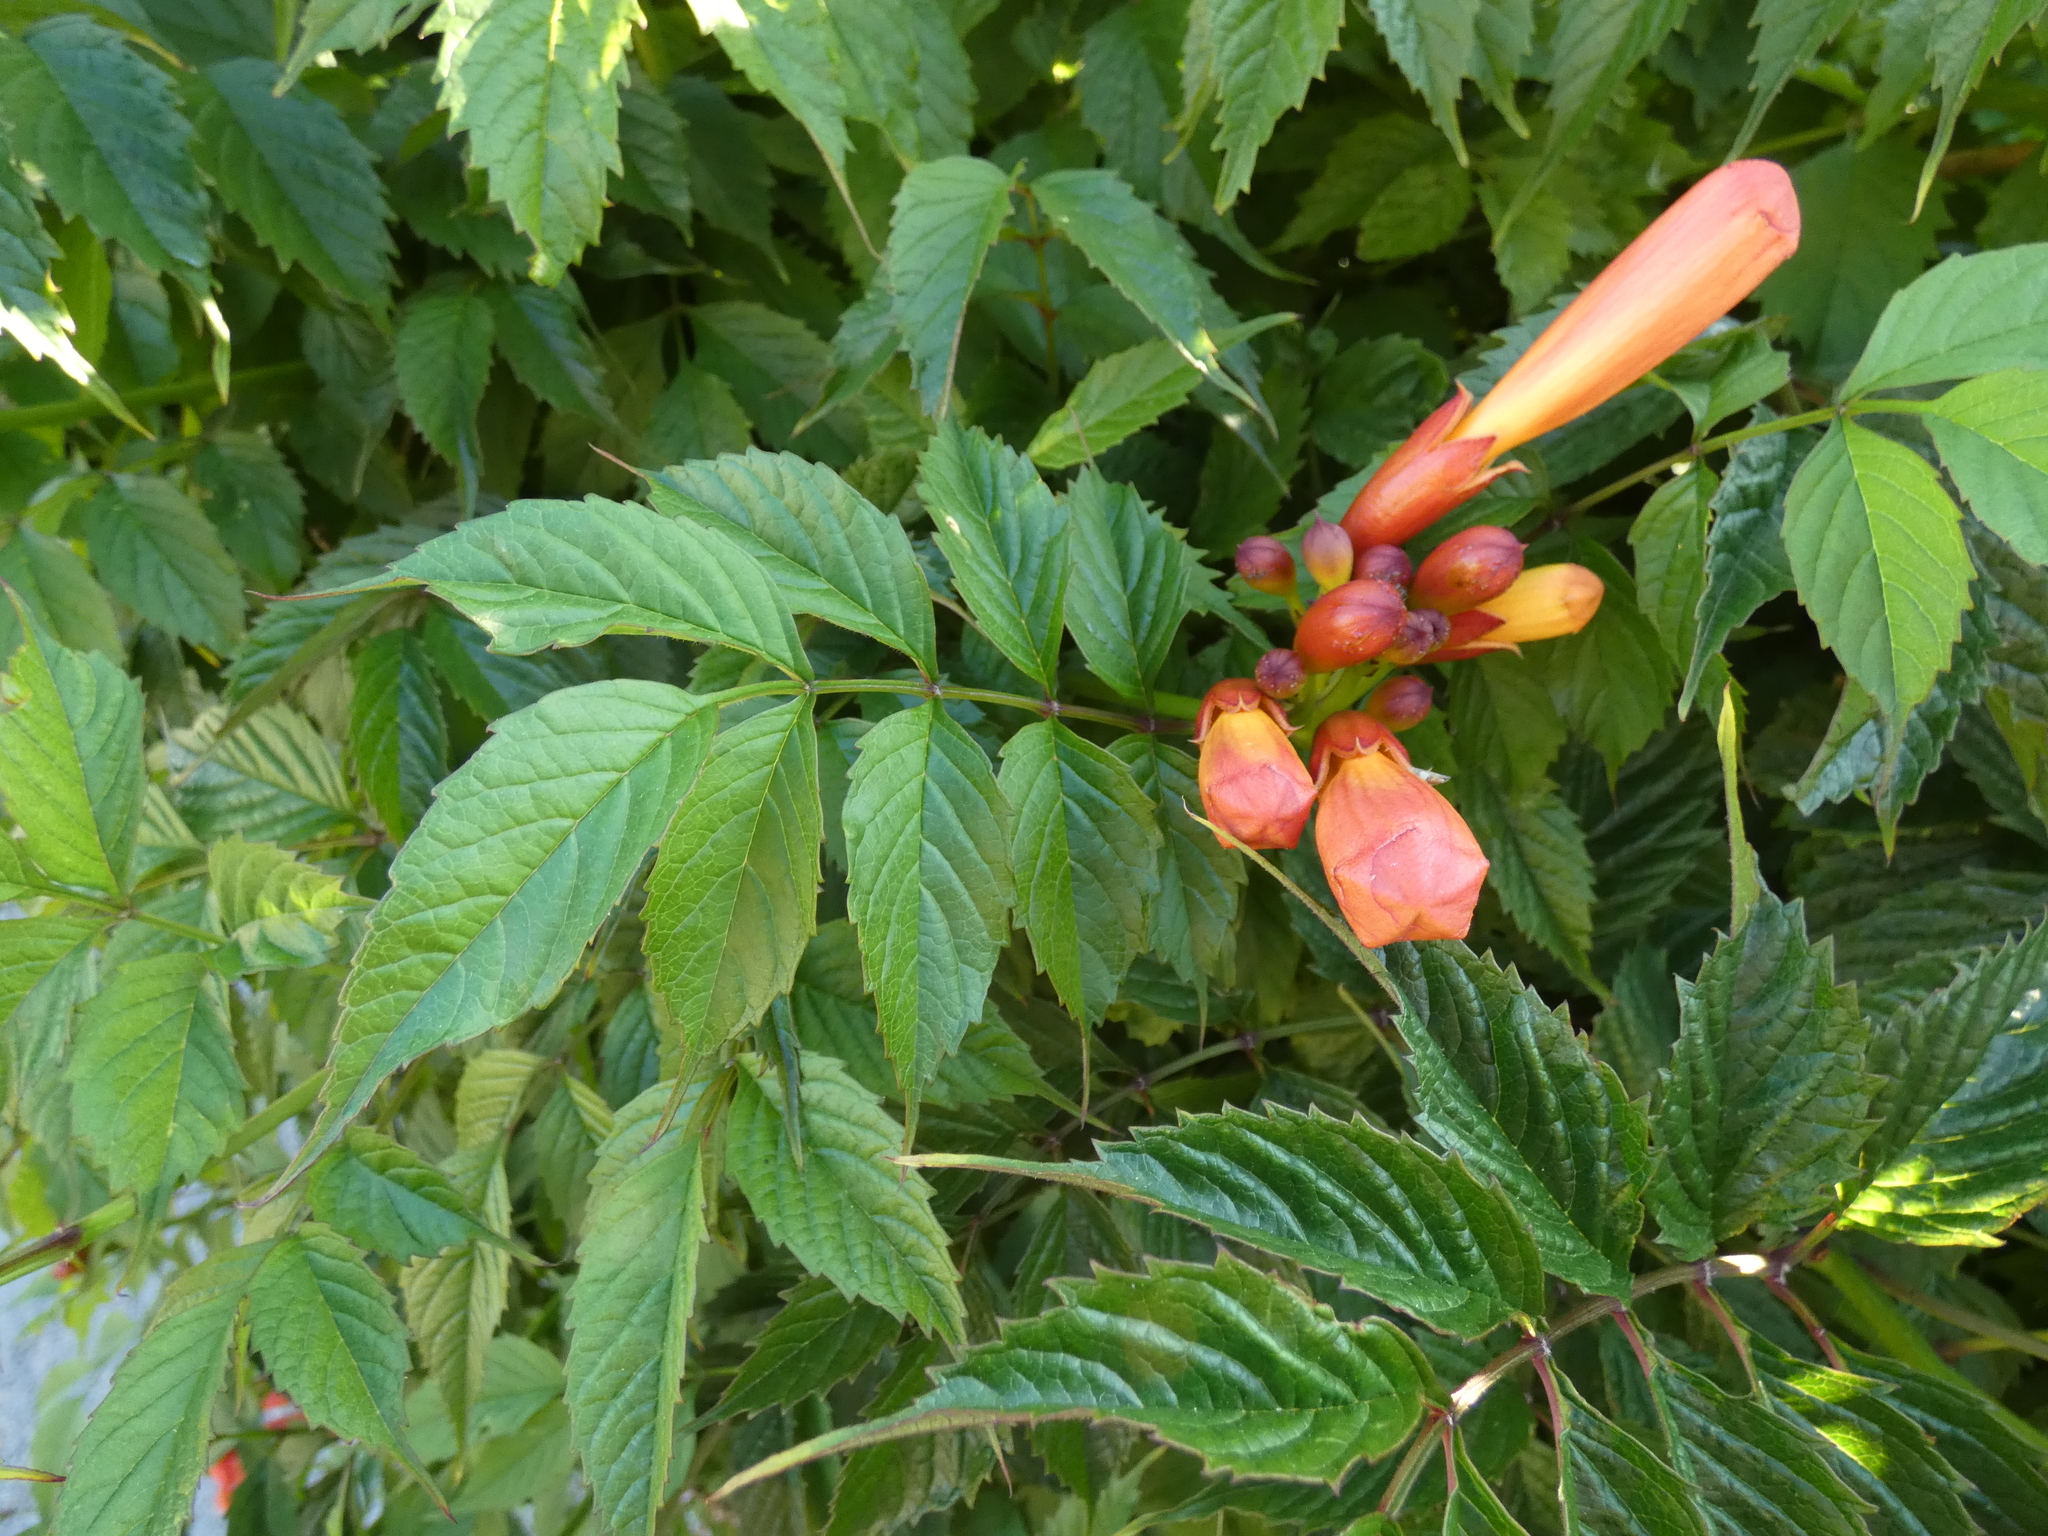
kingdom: Plantae
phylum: Tracheophyta
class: Magnoliopsida
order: Lamiales
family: Bignoniaceae
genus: Campsis
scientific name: Campsis radicans
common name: Trumpet-creeper
